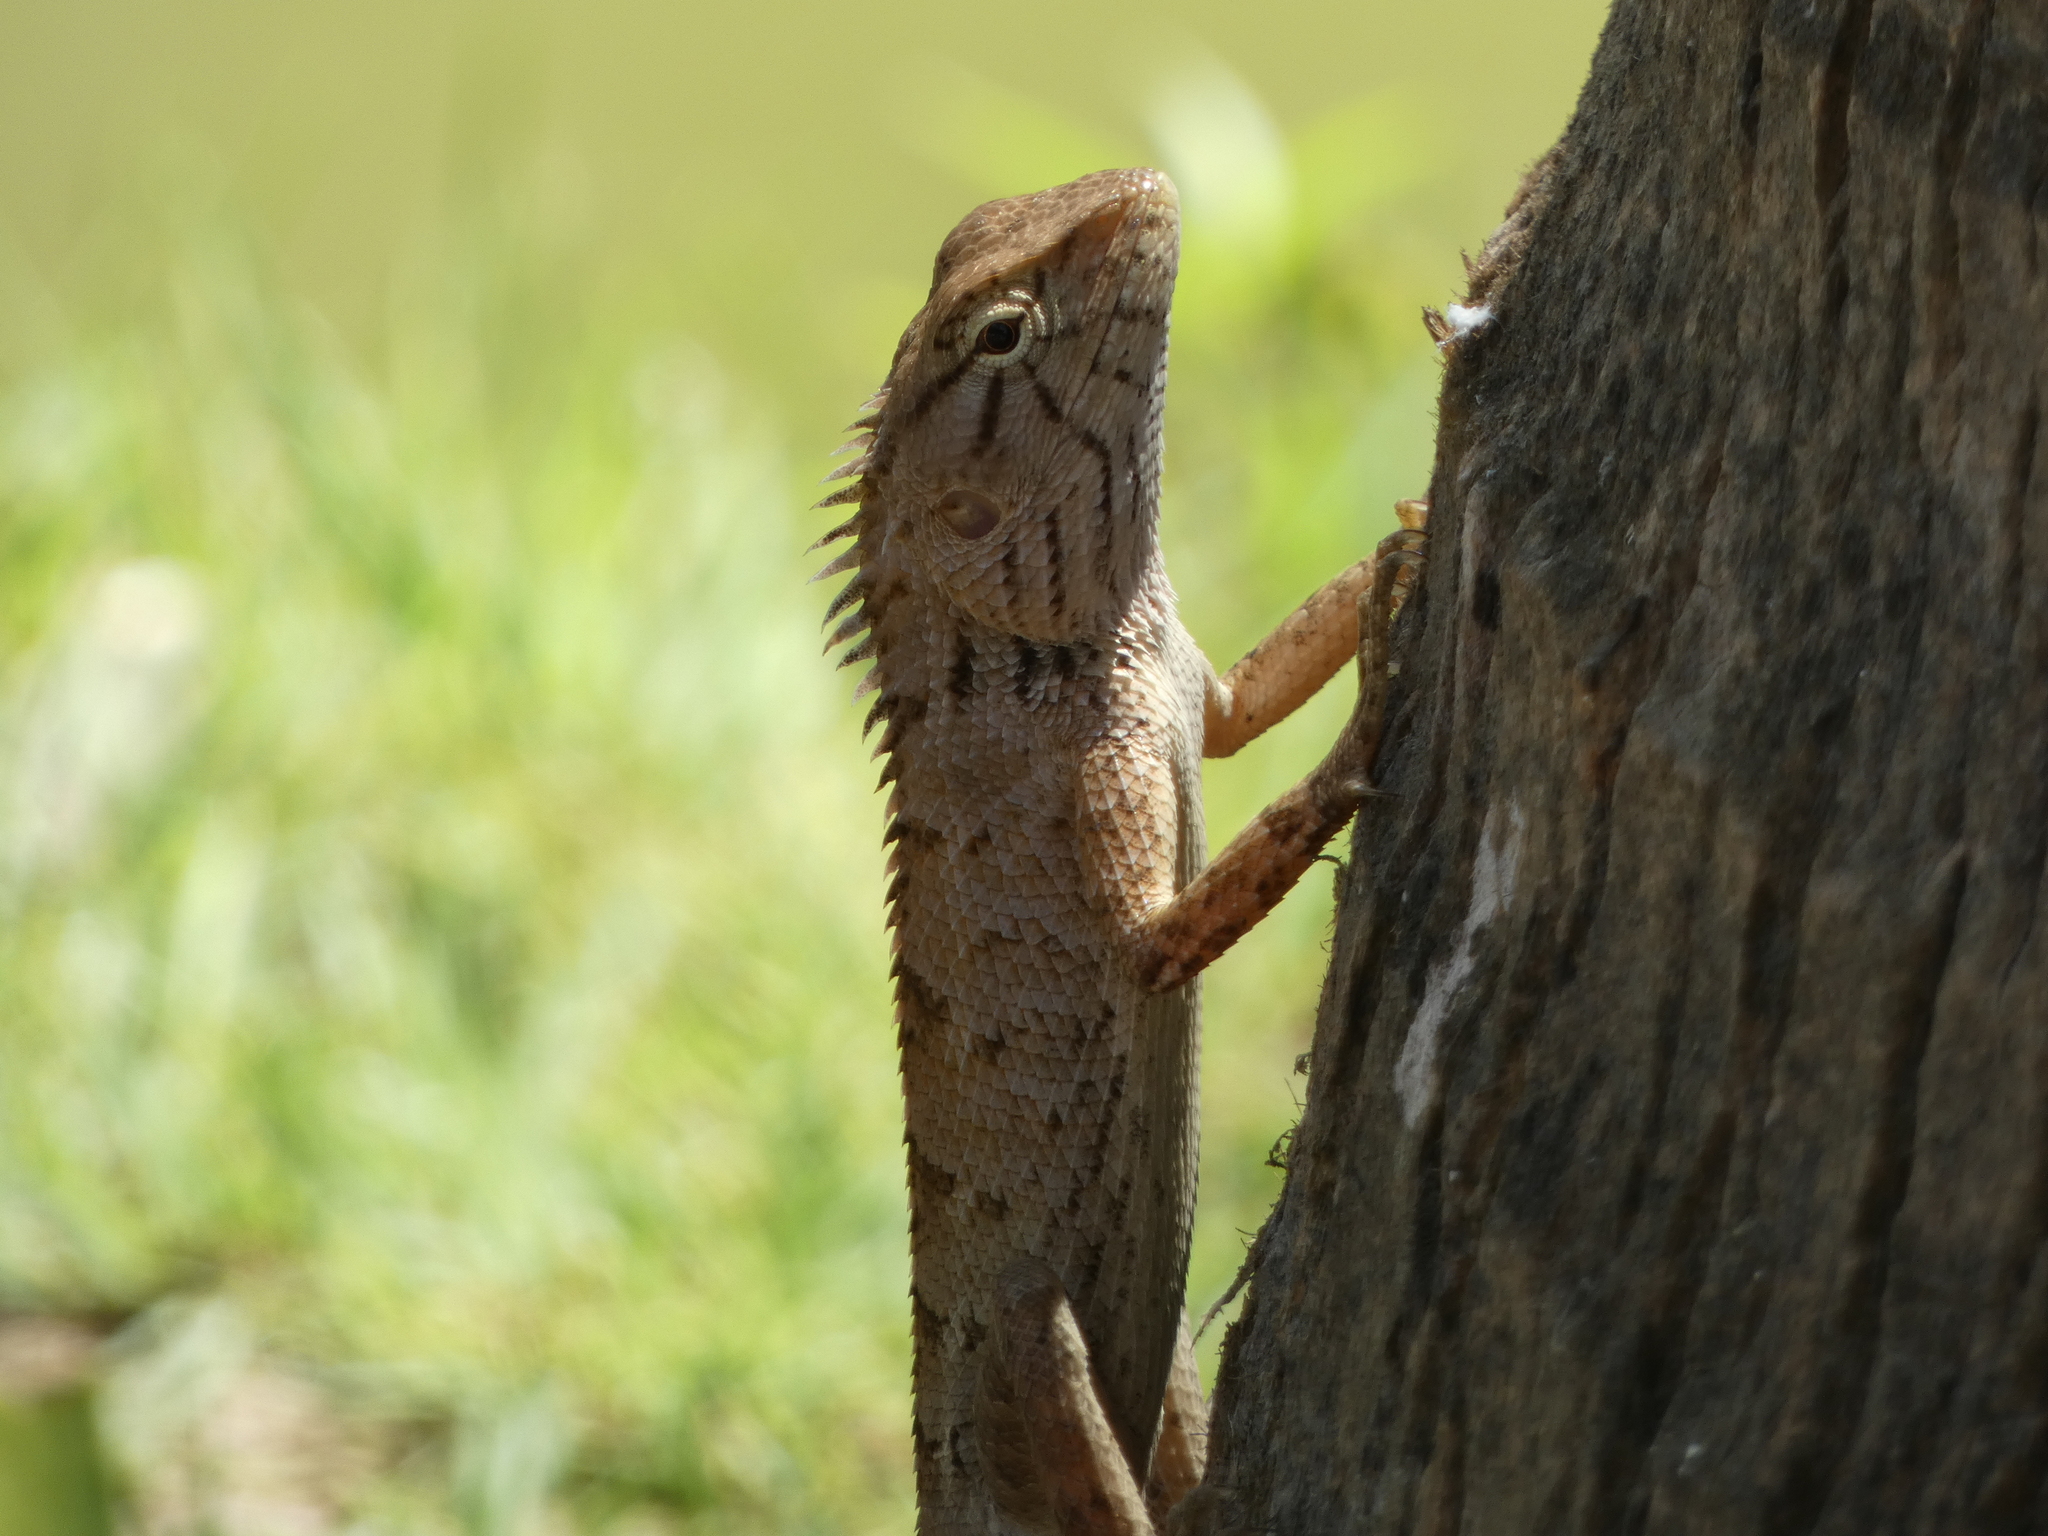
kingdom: Animalia
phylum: Chordata
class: Squamata
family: Agamidae
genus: Calotes
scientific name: Calotes versicolor
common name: Oriental garden lizard
